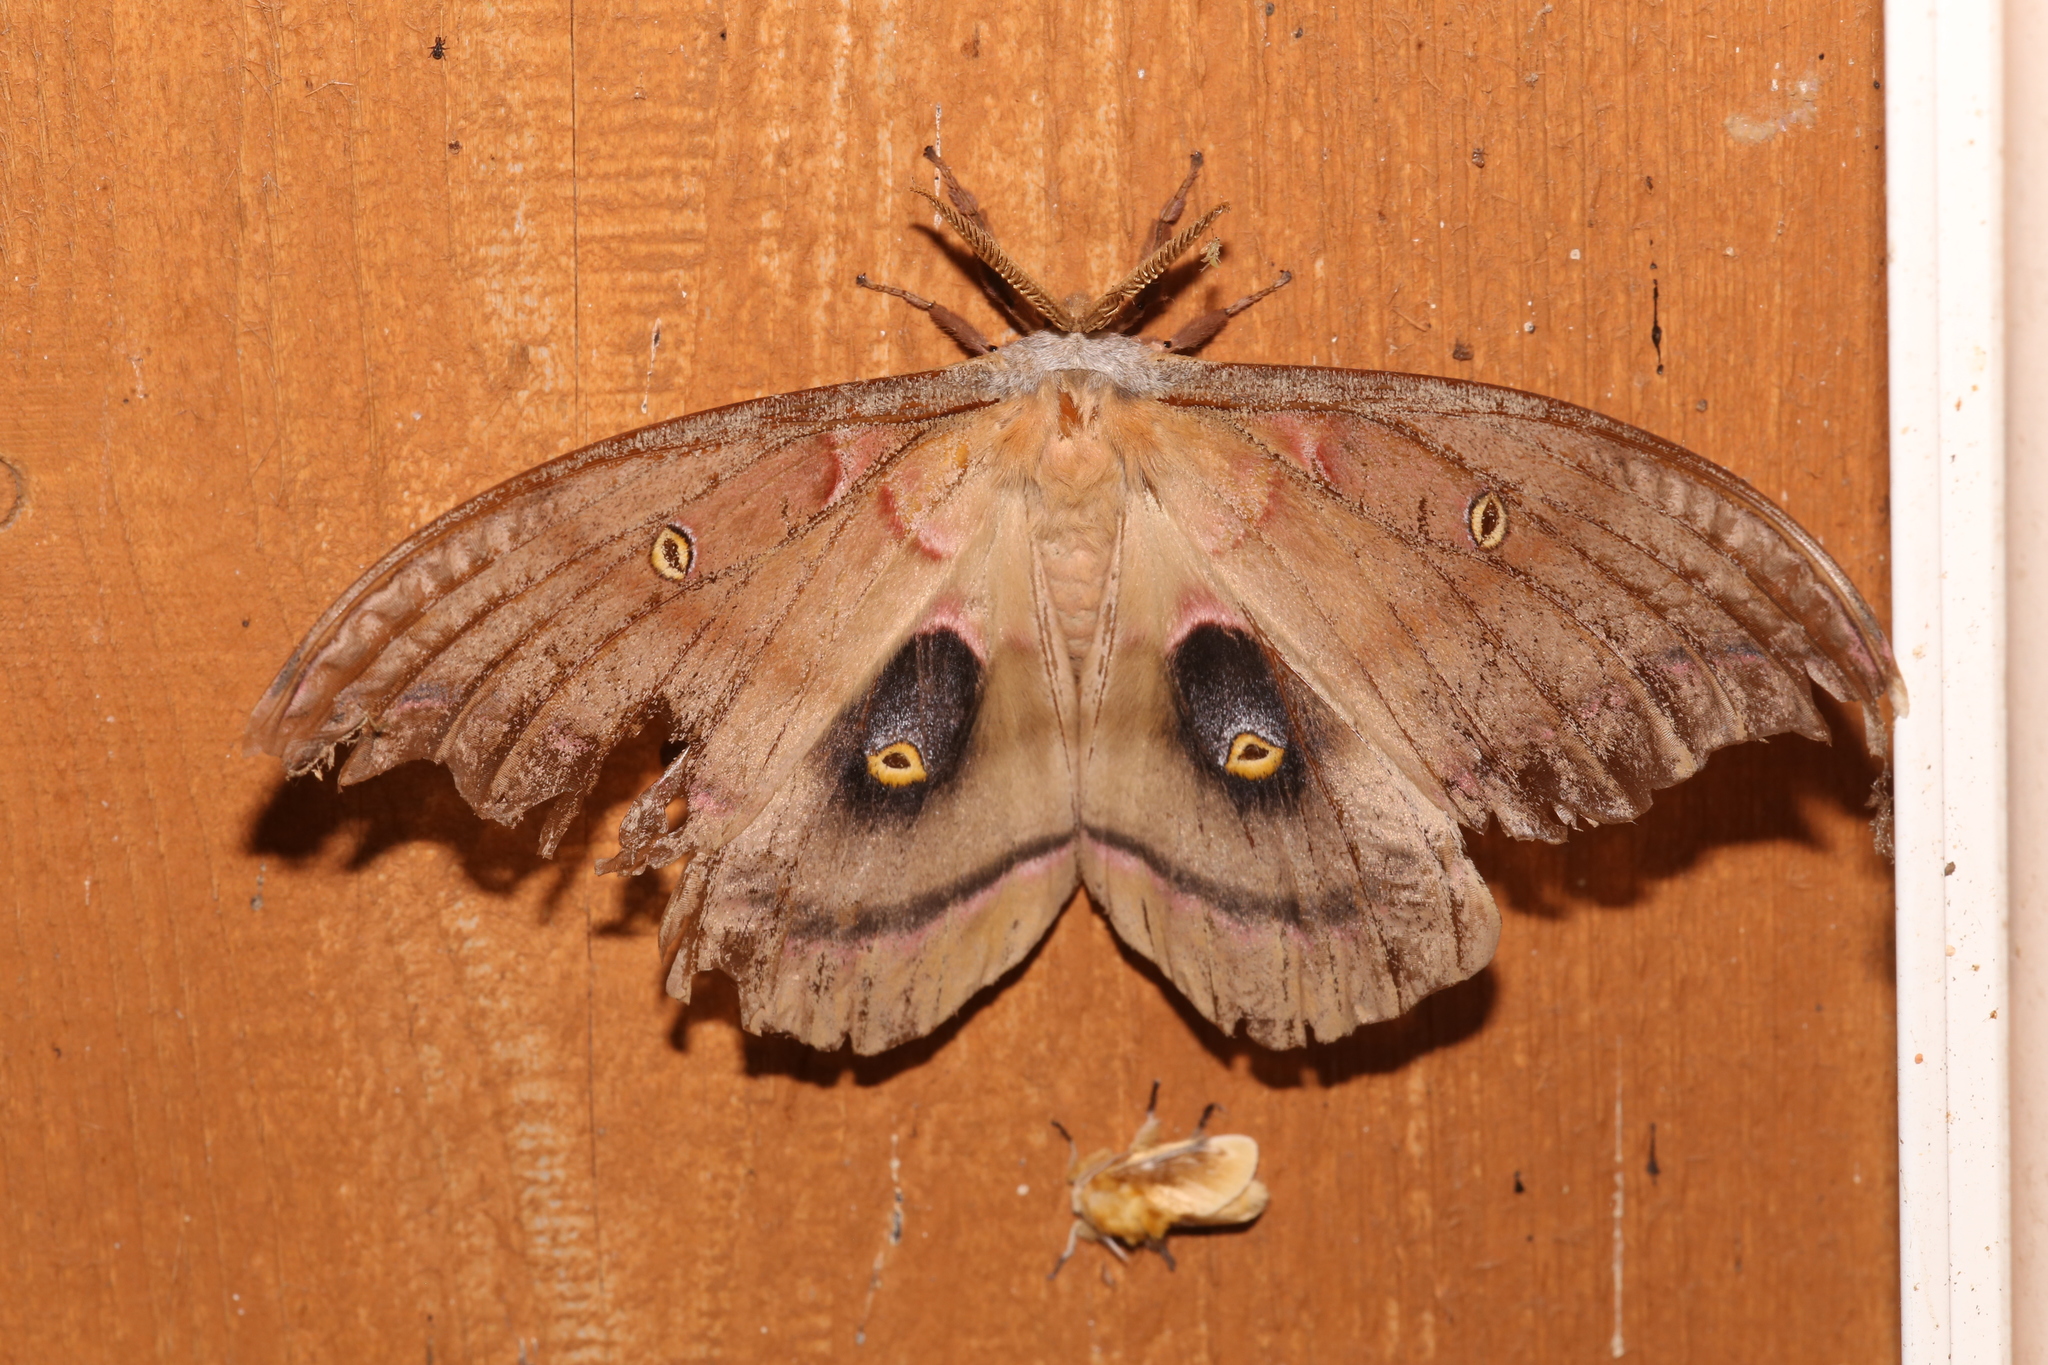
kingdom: Animalia
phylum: Arthropoda
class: Insecta
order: Lepidoptera
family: Saturniidae
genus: Antheraea
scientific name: Antheraea polyphemus
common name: Polyphemus moth
